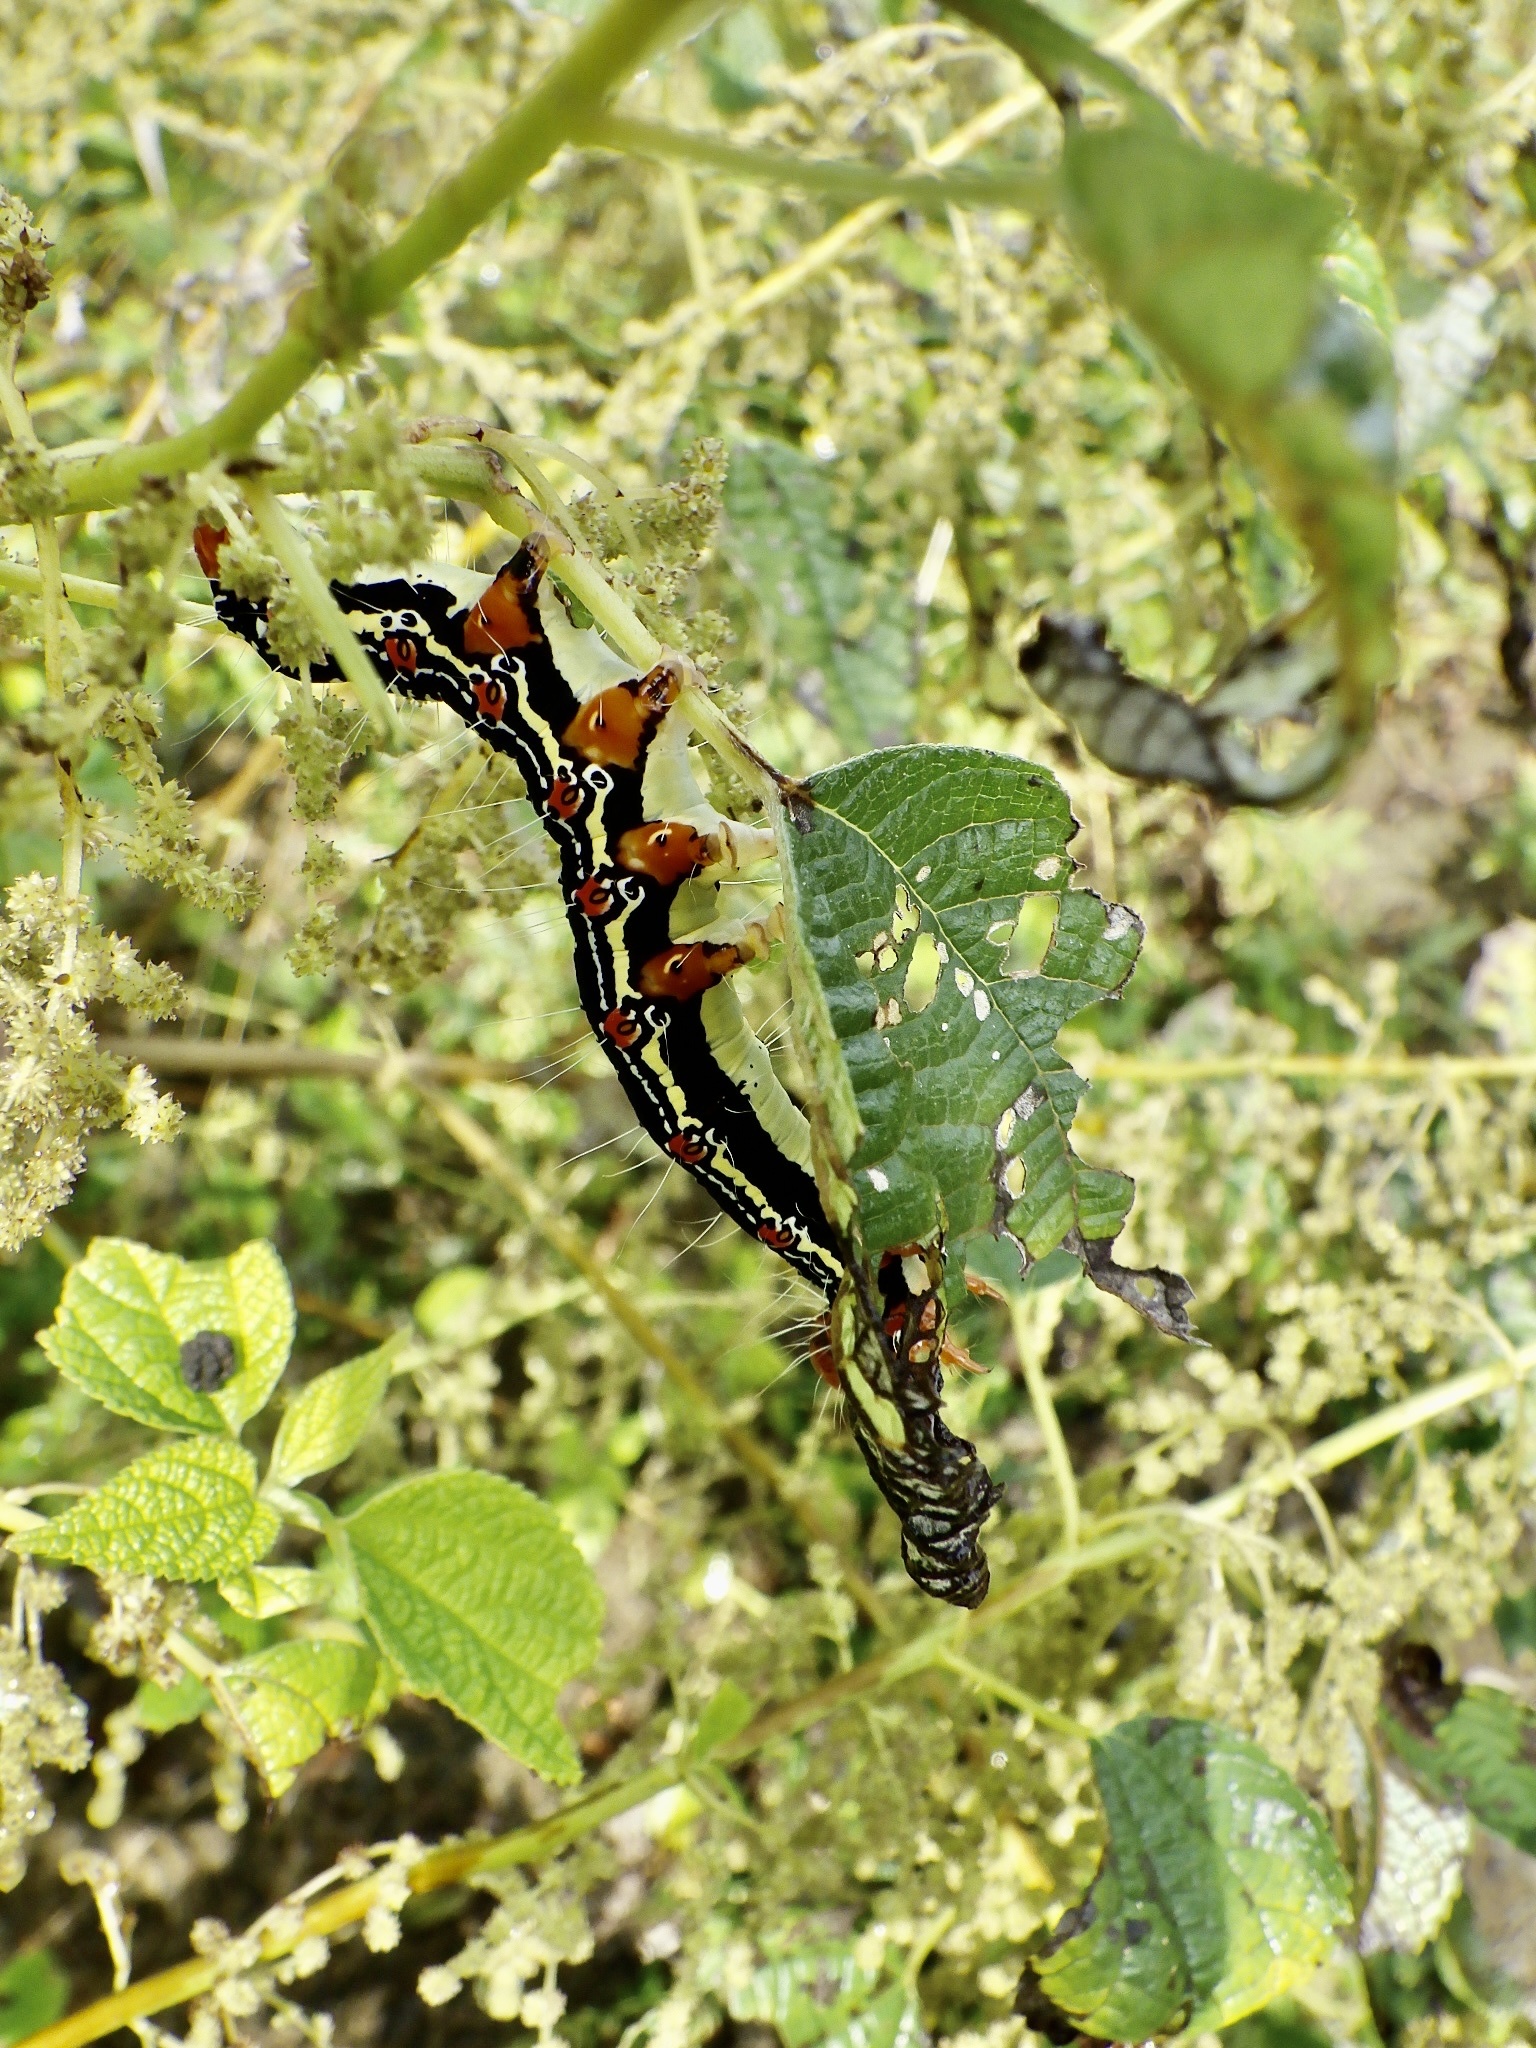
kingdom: Animalia
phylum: Arthropoda
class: Insecta
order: Lepidoptera
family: Erebidae
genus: Arcte
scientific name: Arcte coerula
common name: Ramie moth
